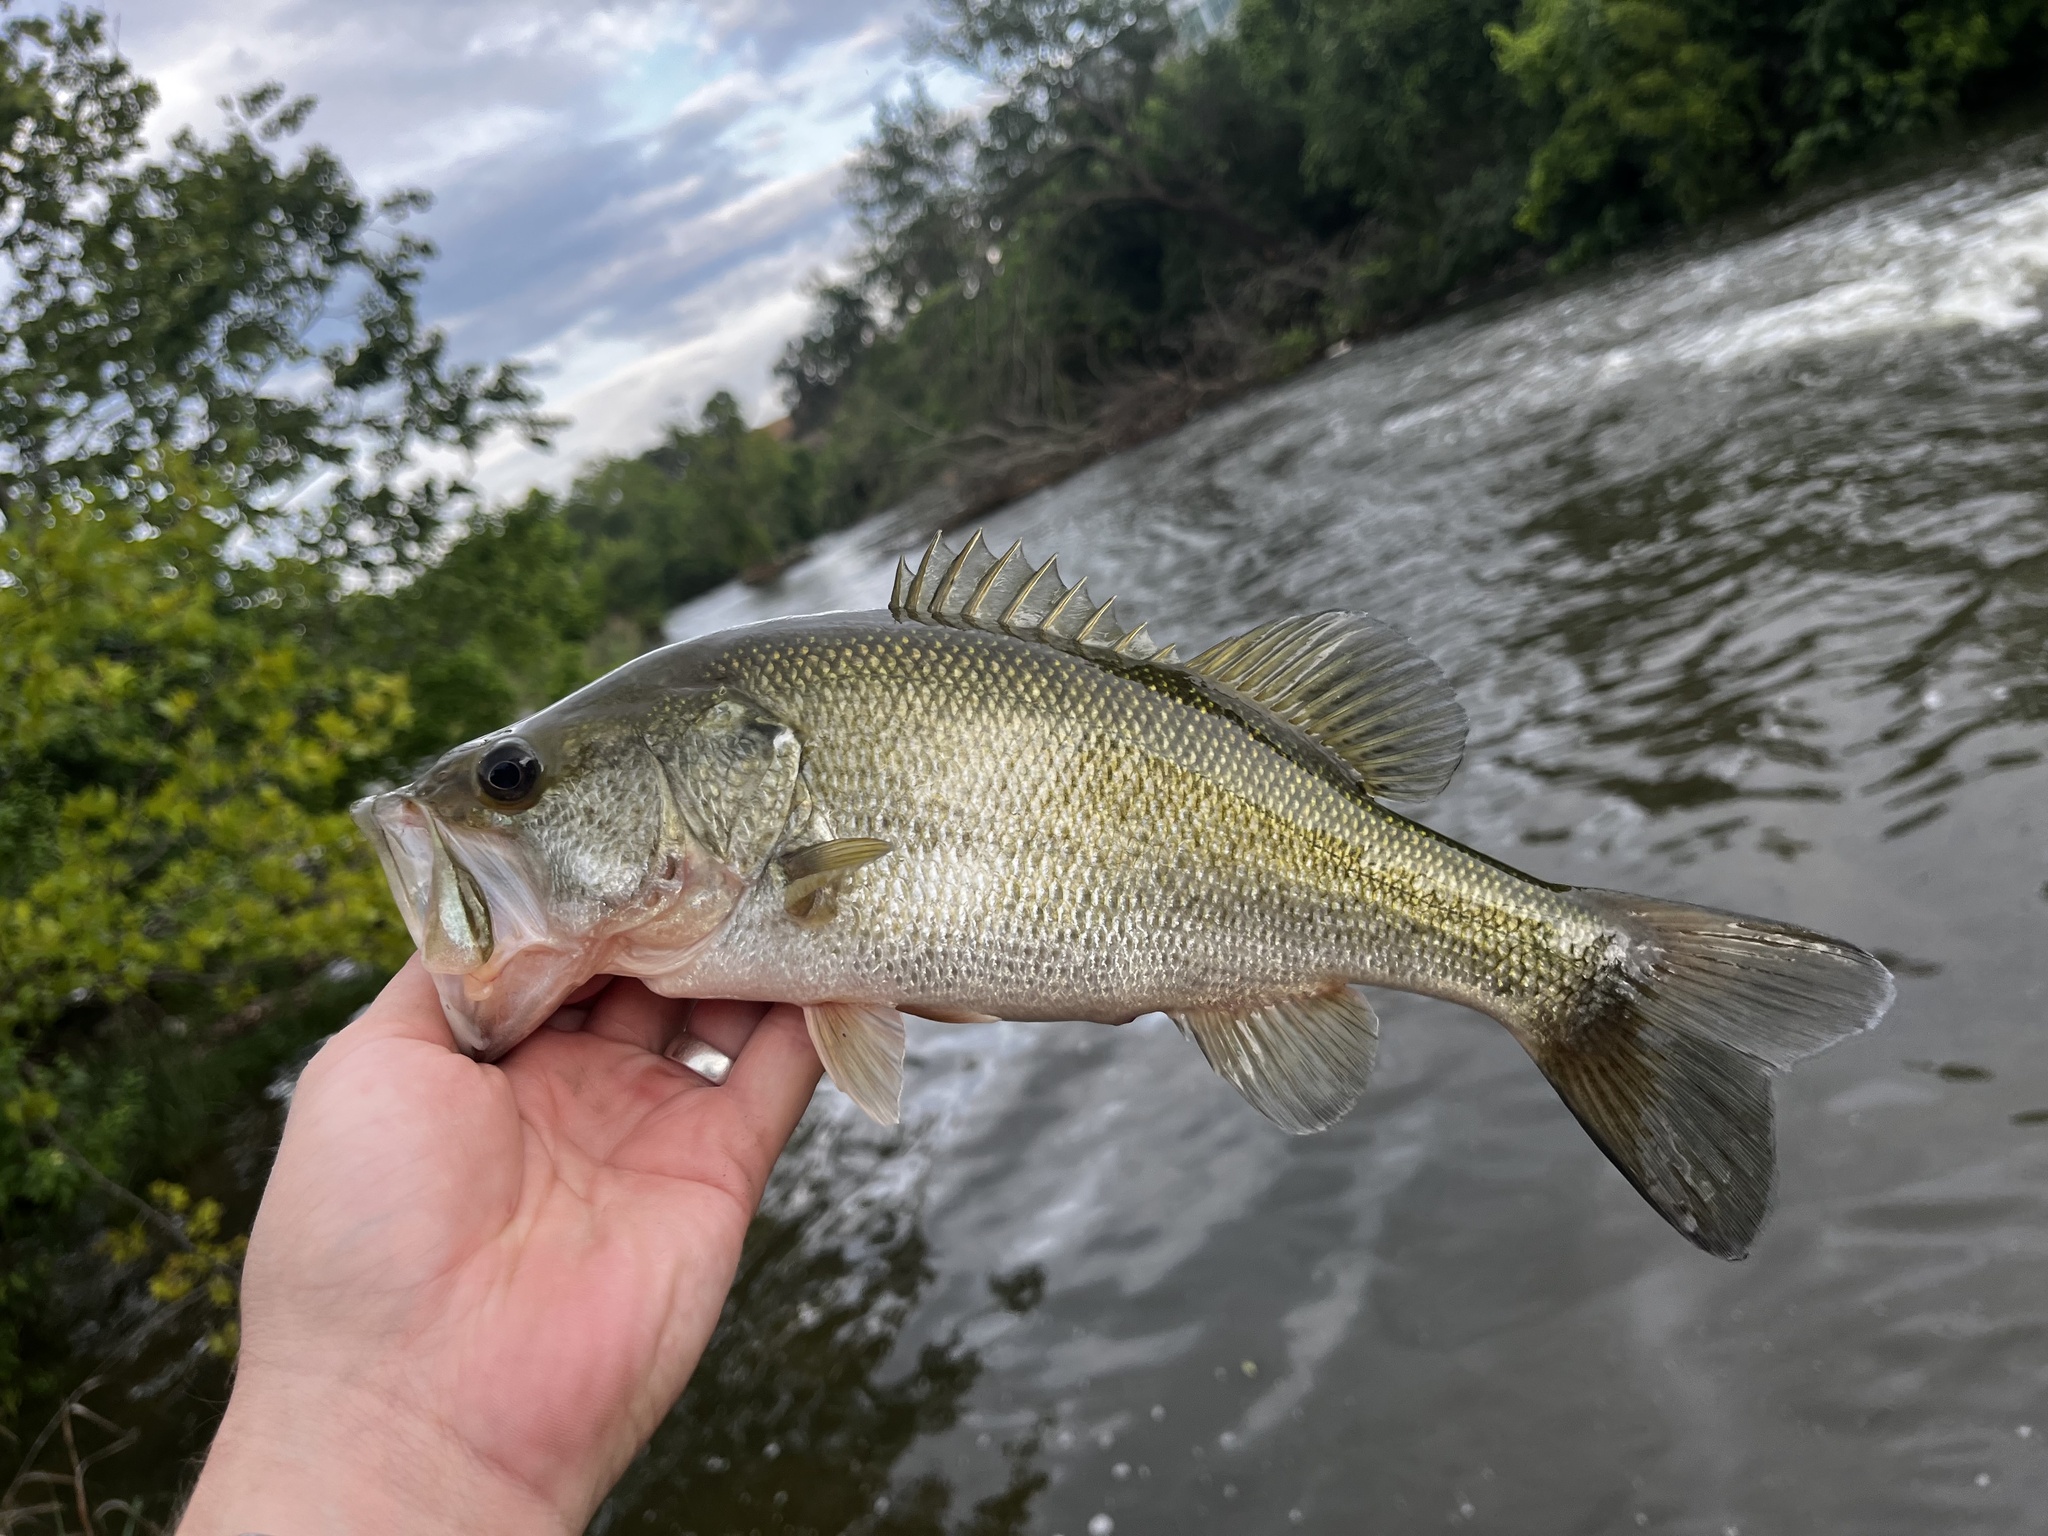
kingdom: Animalia
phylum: Chordata
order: Perciformes
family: Centrarchidae
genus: Micropterus
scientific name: Micropterus
